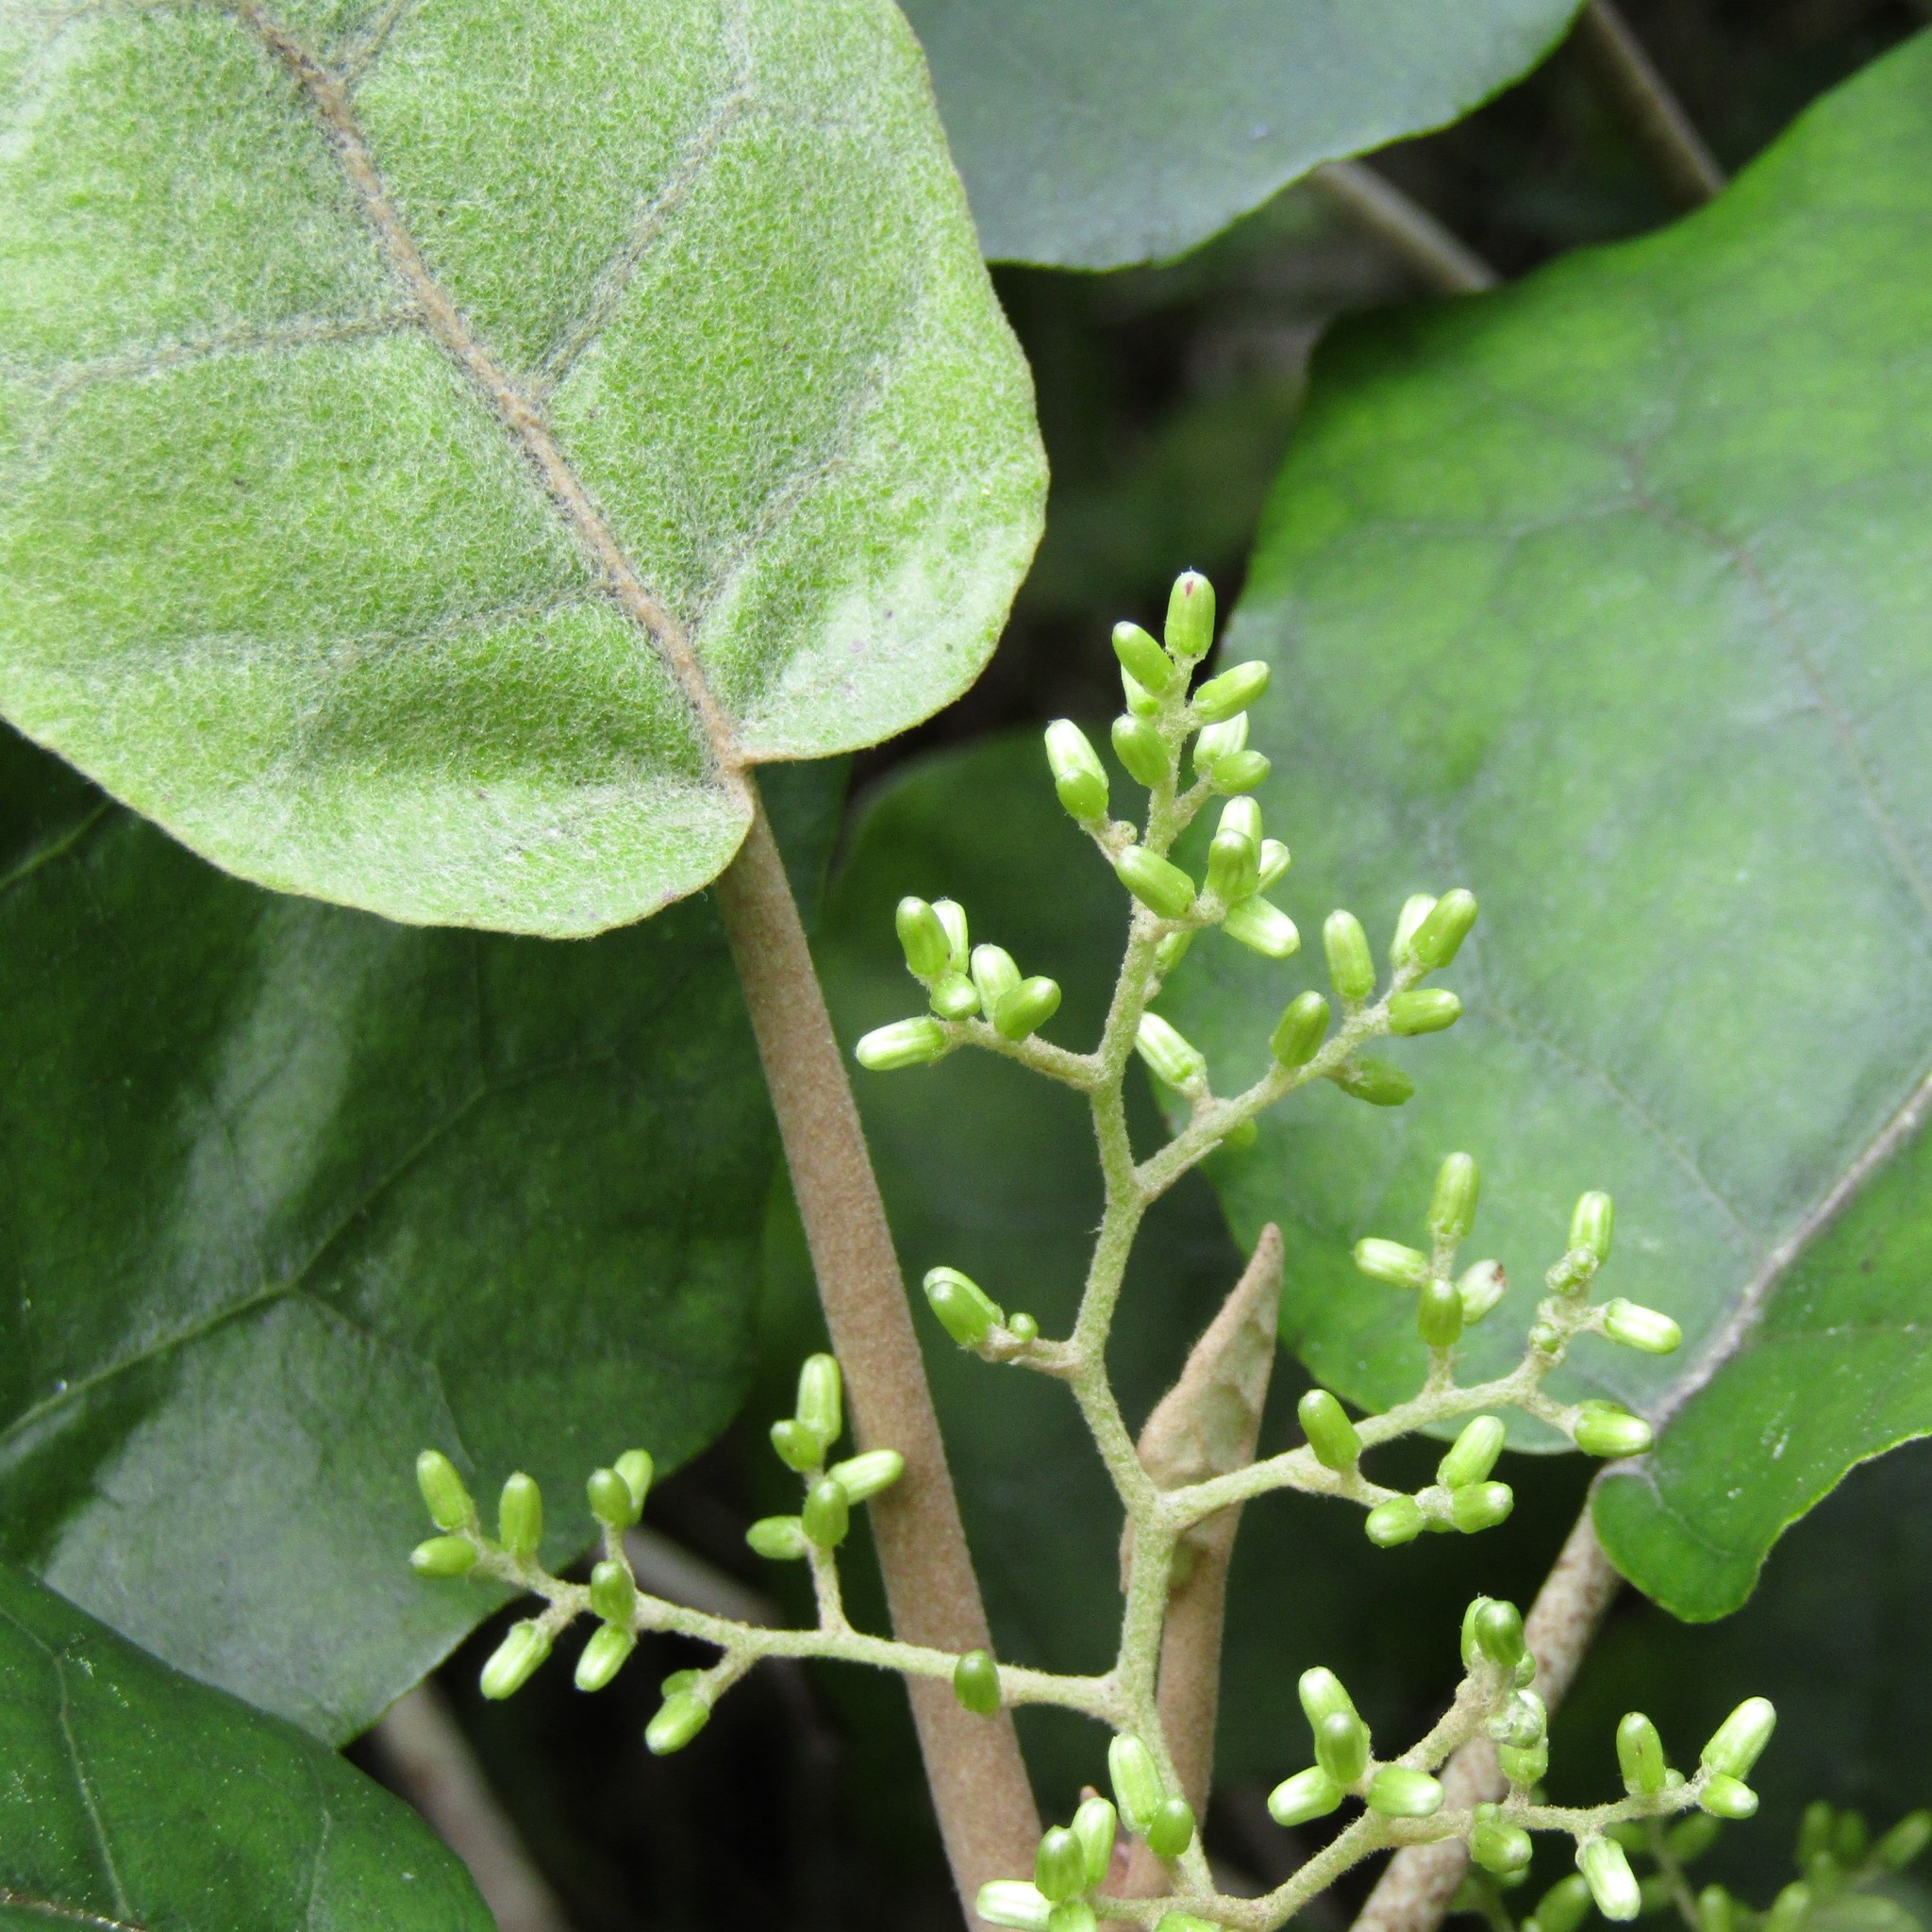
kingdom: Plantae
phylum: Tracheophyta
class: Magnoliopsida
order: Asterales
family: Asteraceae
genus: Brachyglottis
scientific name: Brachyglottis repanda
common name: Hedge ragwort
